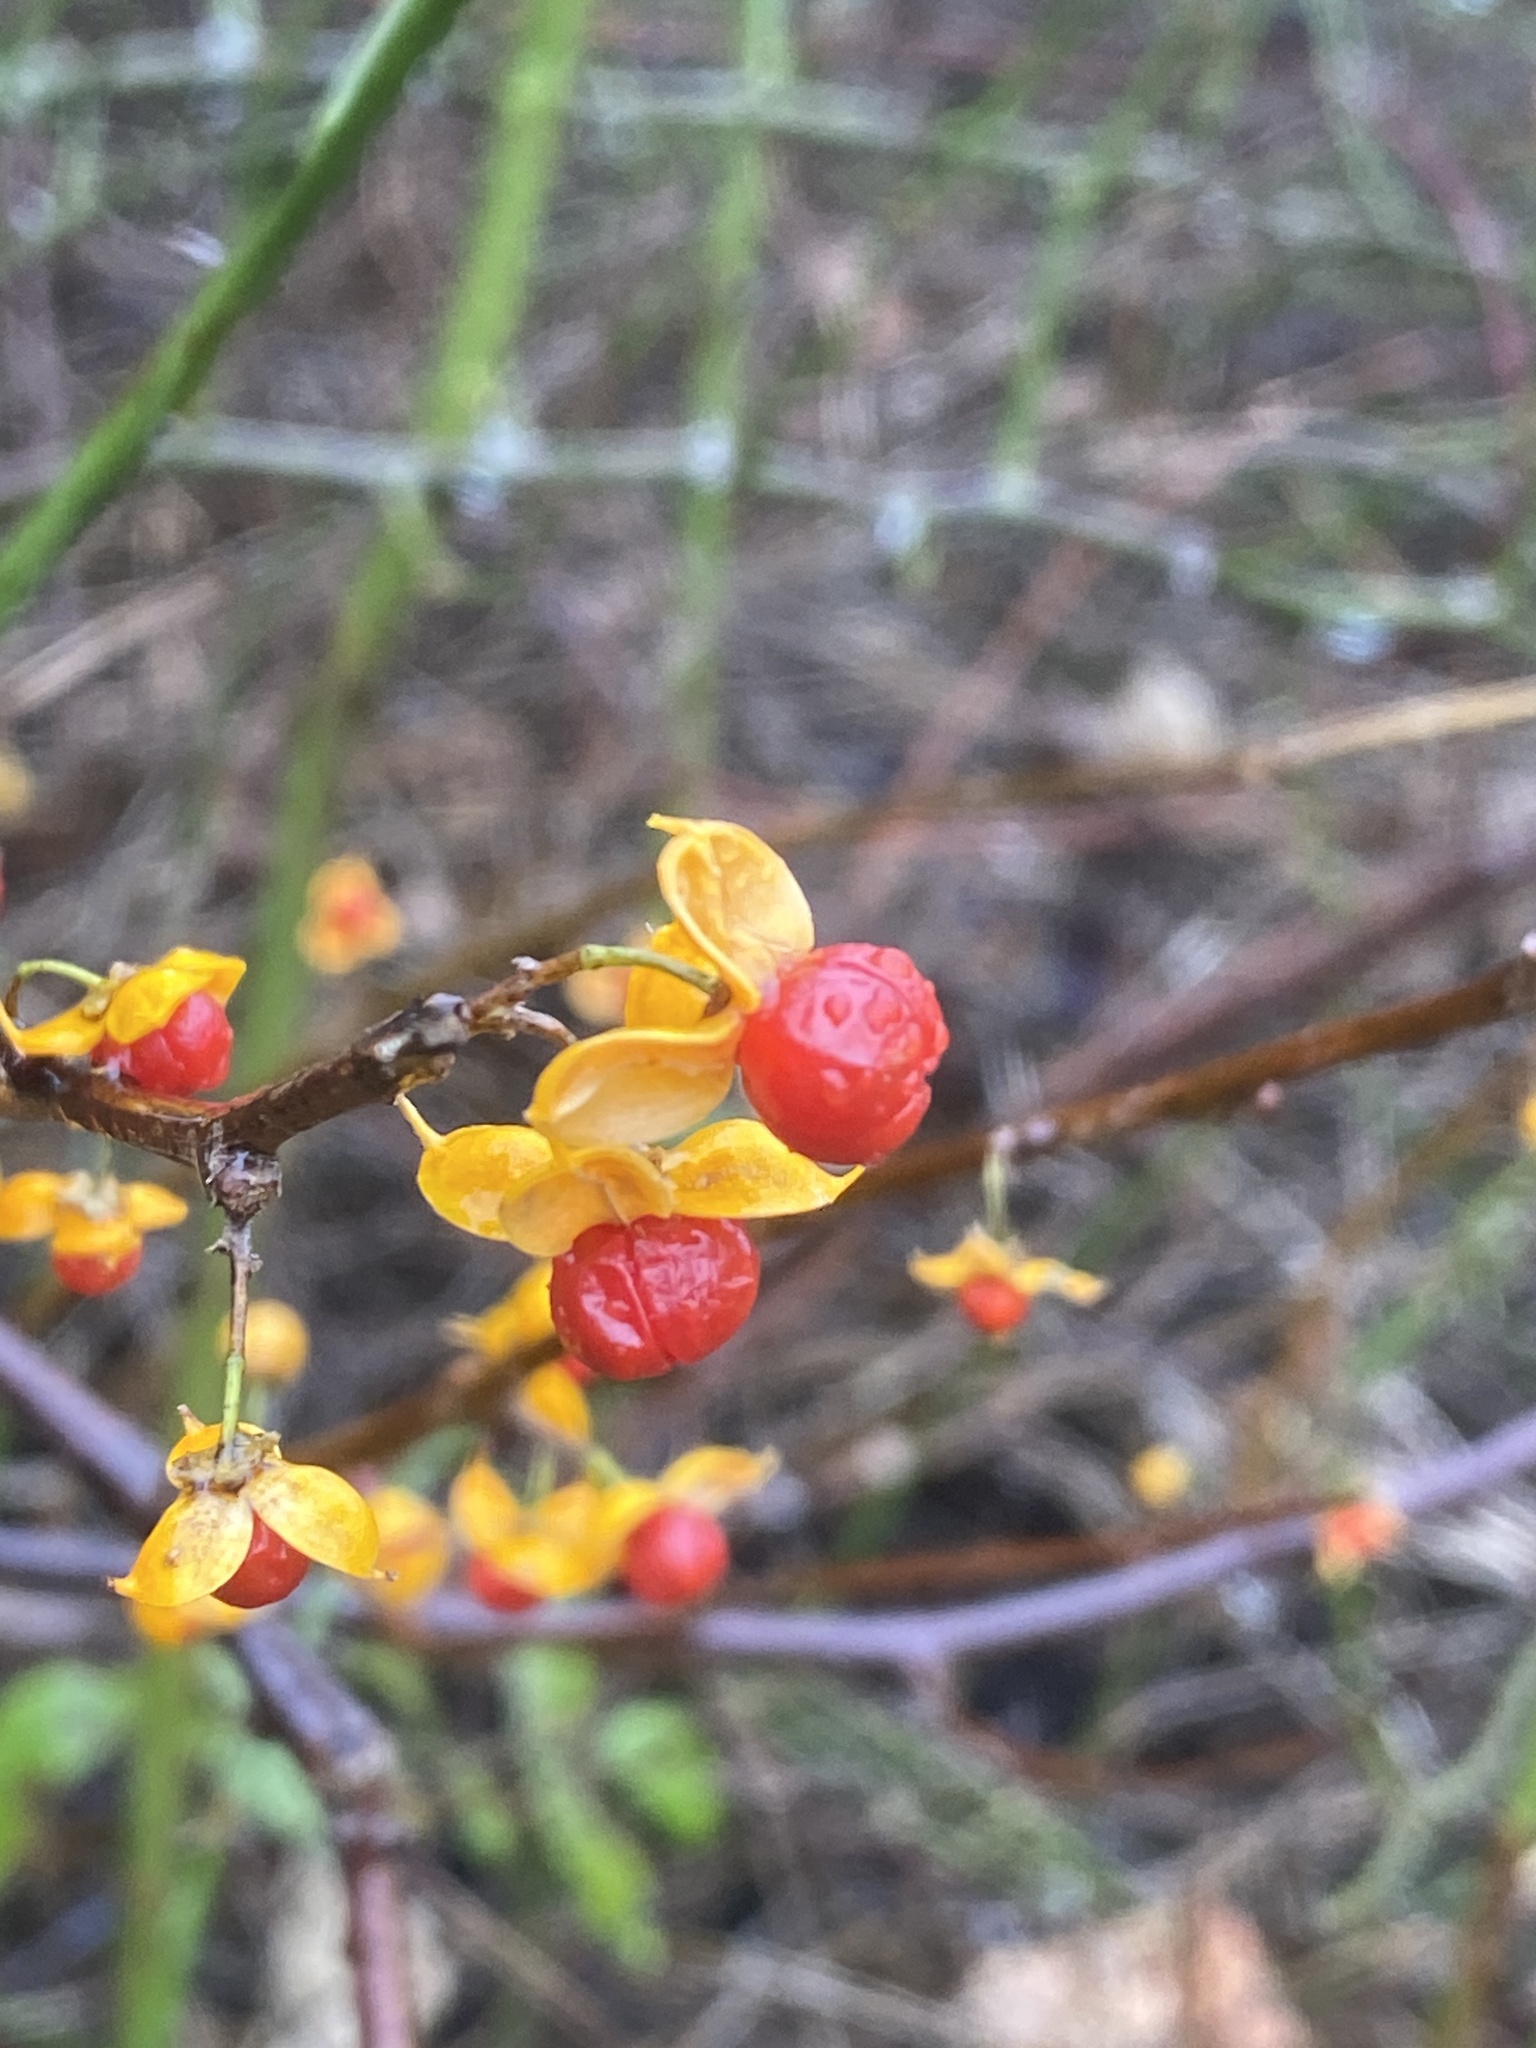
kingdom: Plantae
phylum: Tracheophyta
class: Magnoliopsida
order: Celastrales
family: Celastraceae
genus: Celastrus
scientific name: Celastrus orbiculatus
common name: Oriental bittersweet
